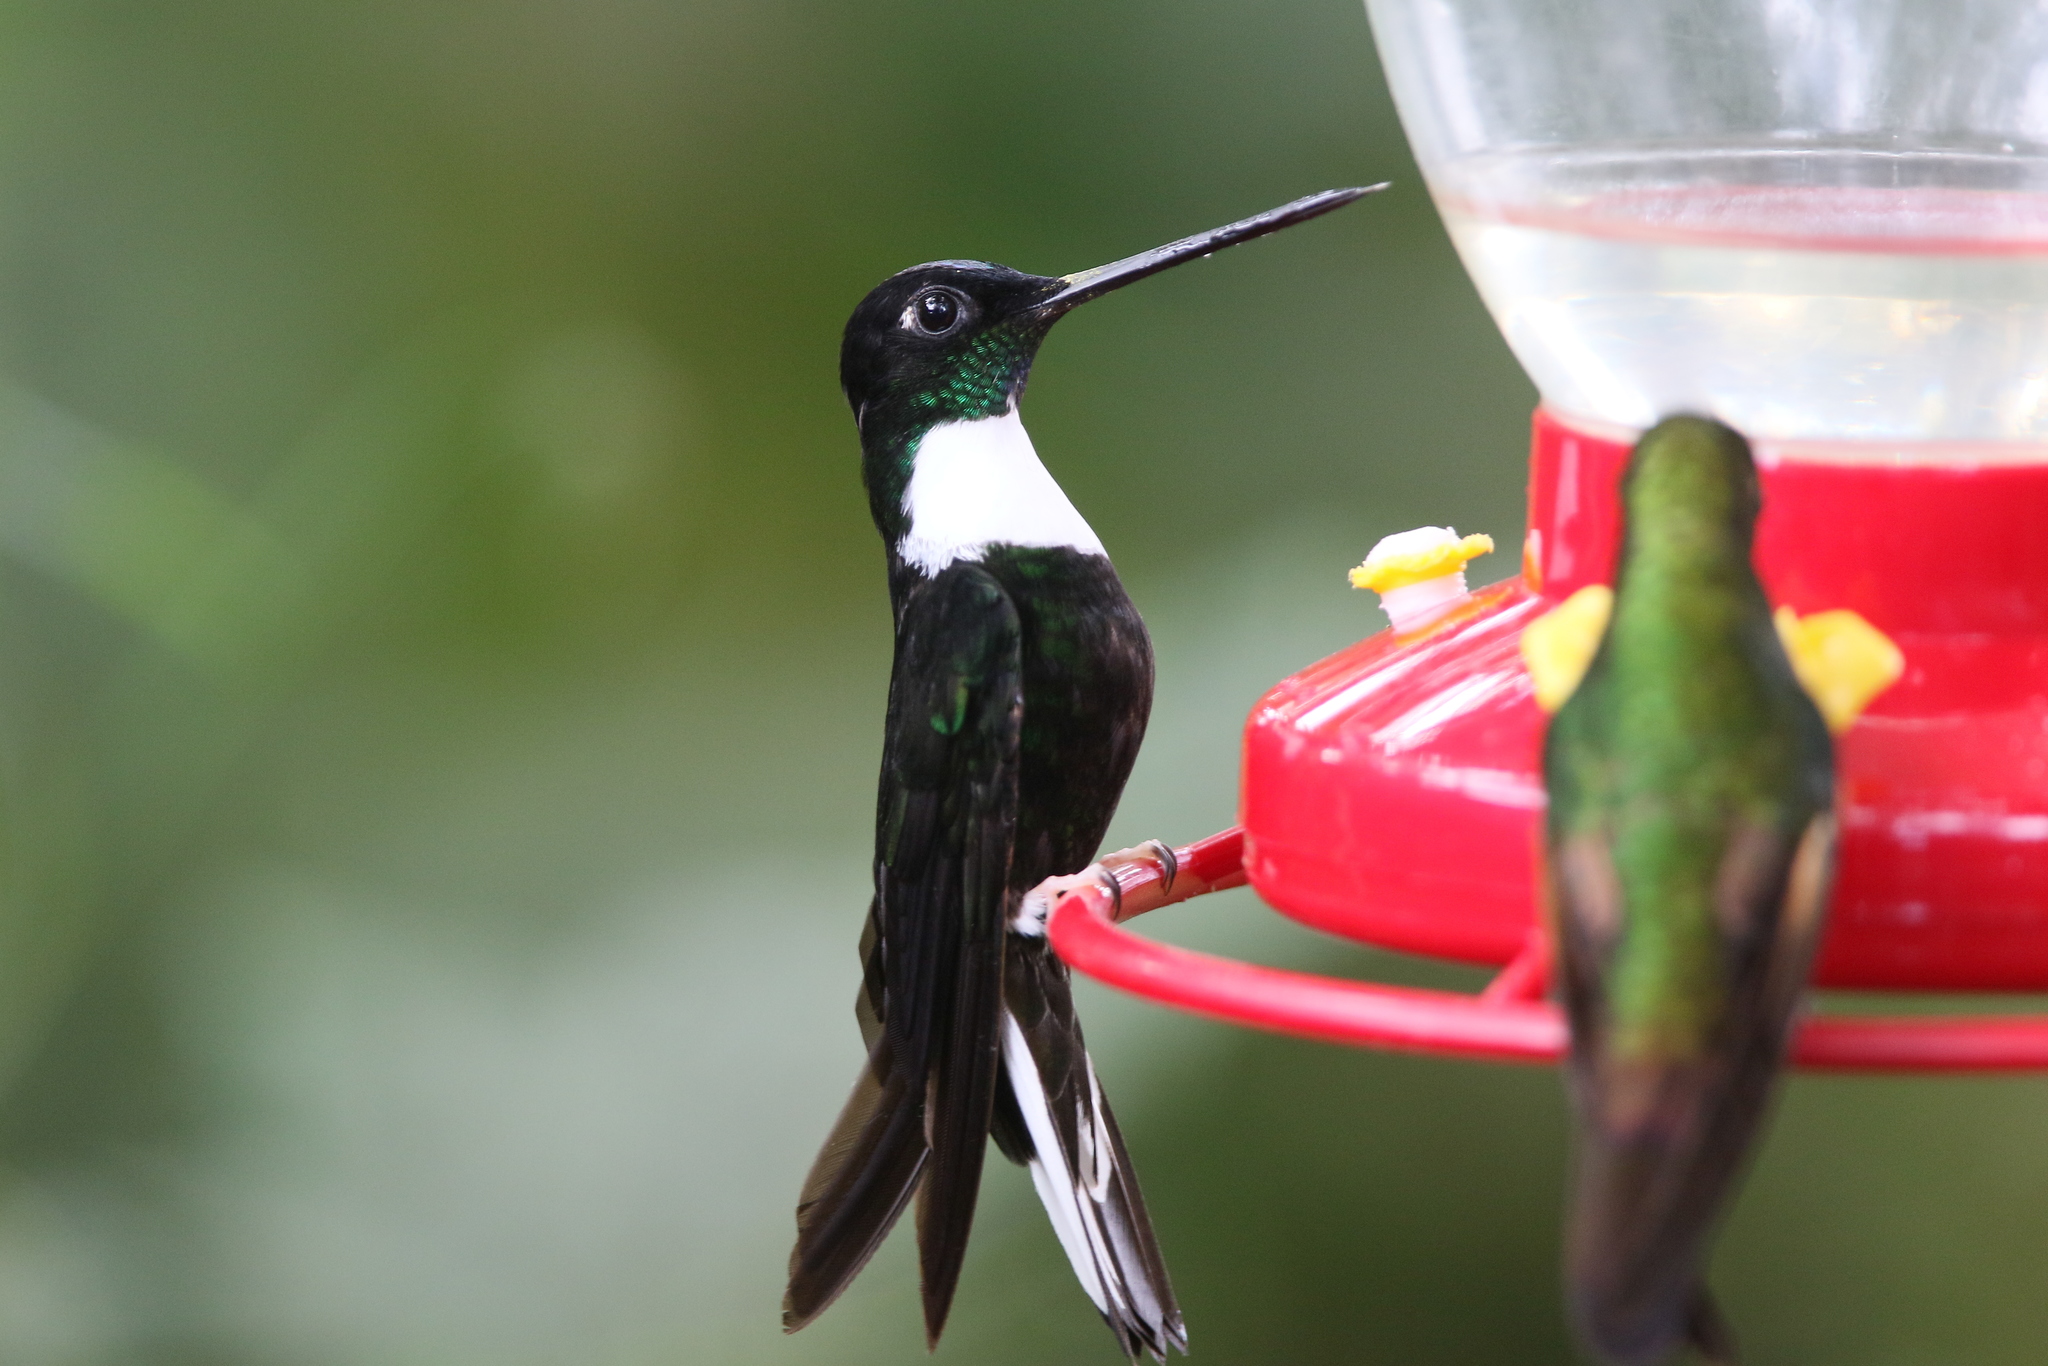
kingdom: Animalia
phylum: Chordata
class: Aves
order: Apodiformes
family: Trochilidae
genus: Coeligena
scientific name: Coeligena torquata
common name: Collared inca
